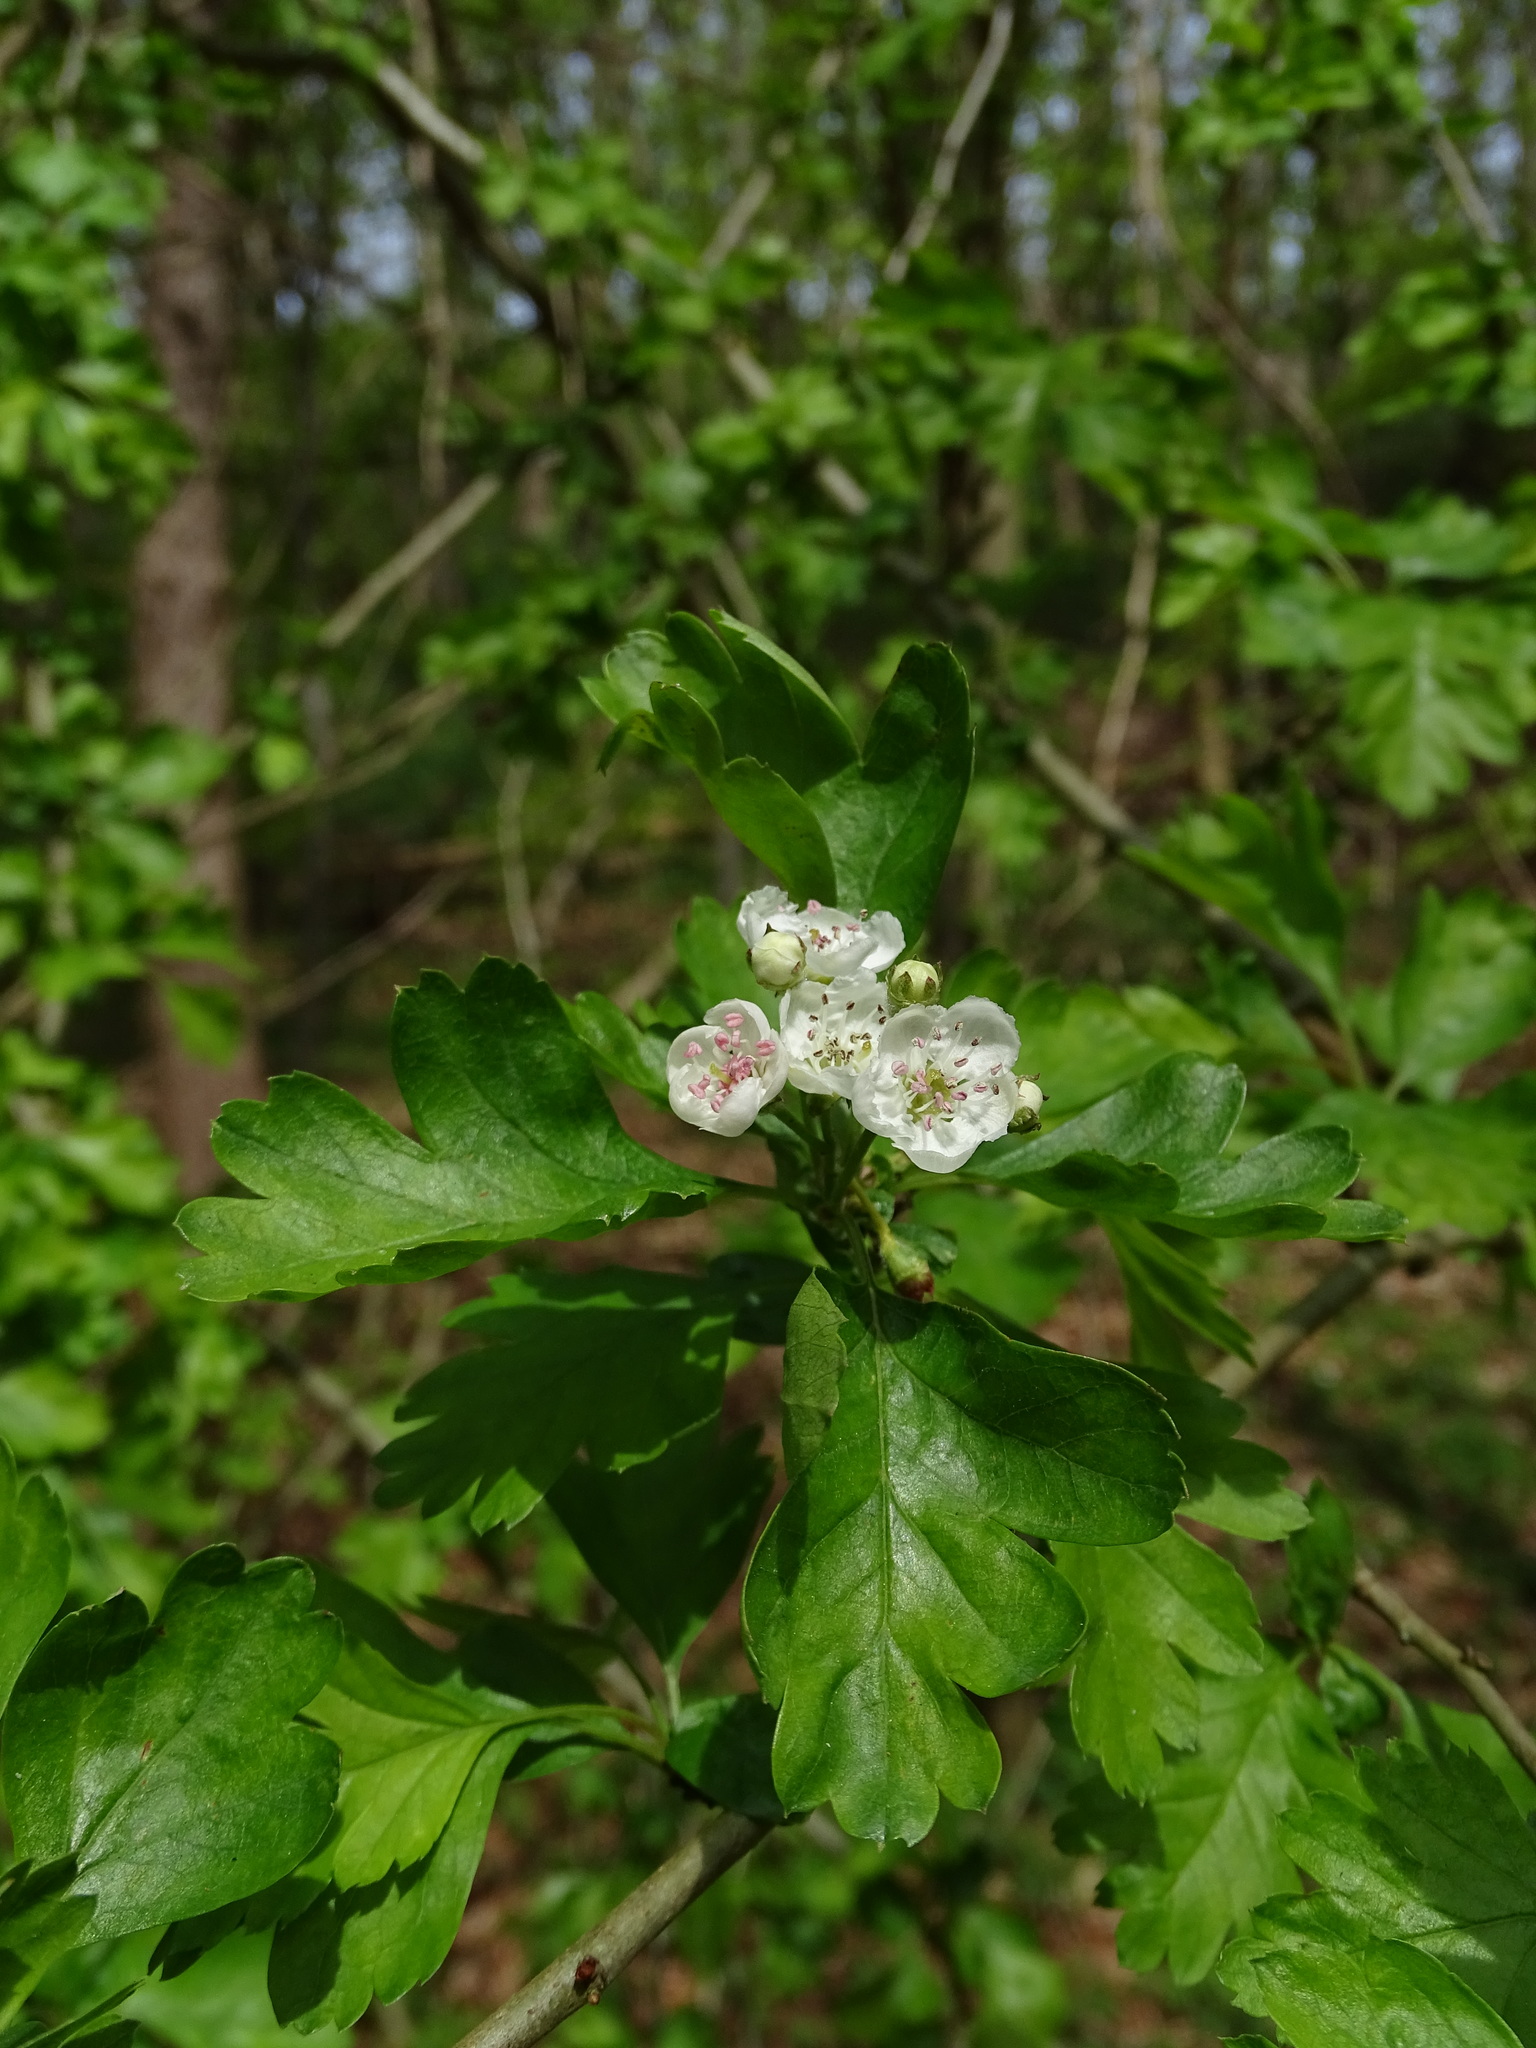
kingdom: Plantae
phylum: Tracheophyta
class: Magnoliopsida
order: Rosales
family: Rosaceae
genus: Crataegus
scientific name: Crataegus monogyna
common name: Hawthorn
